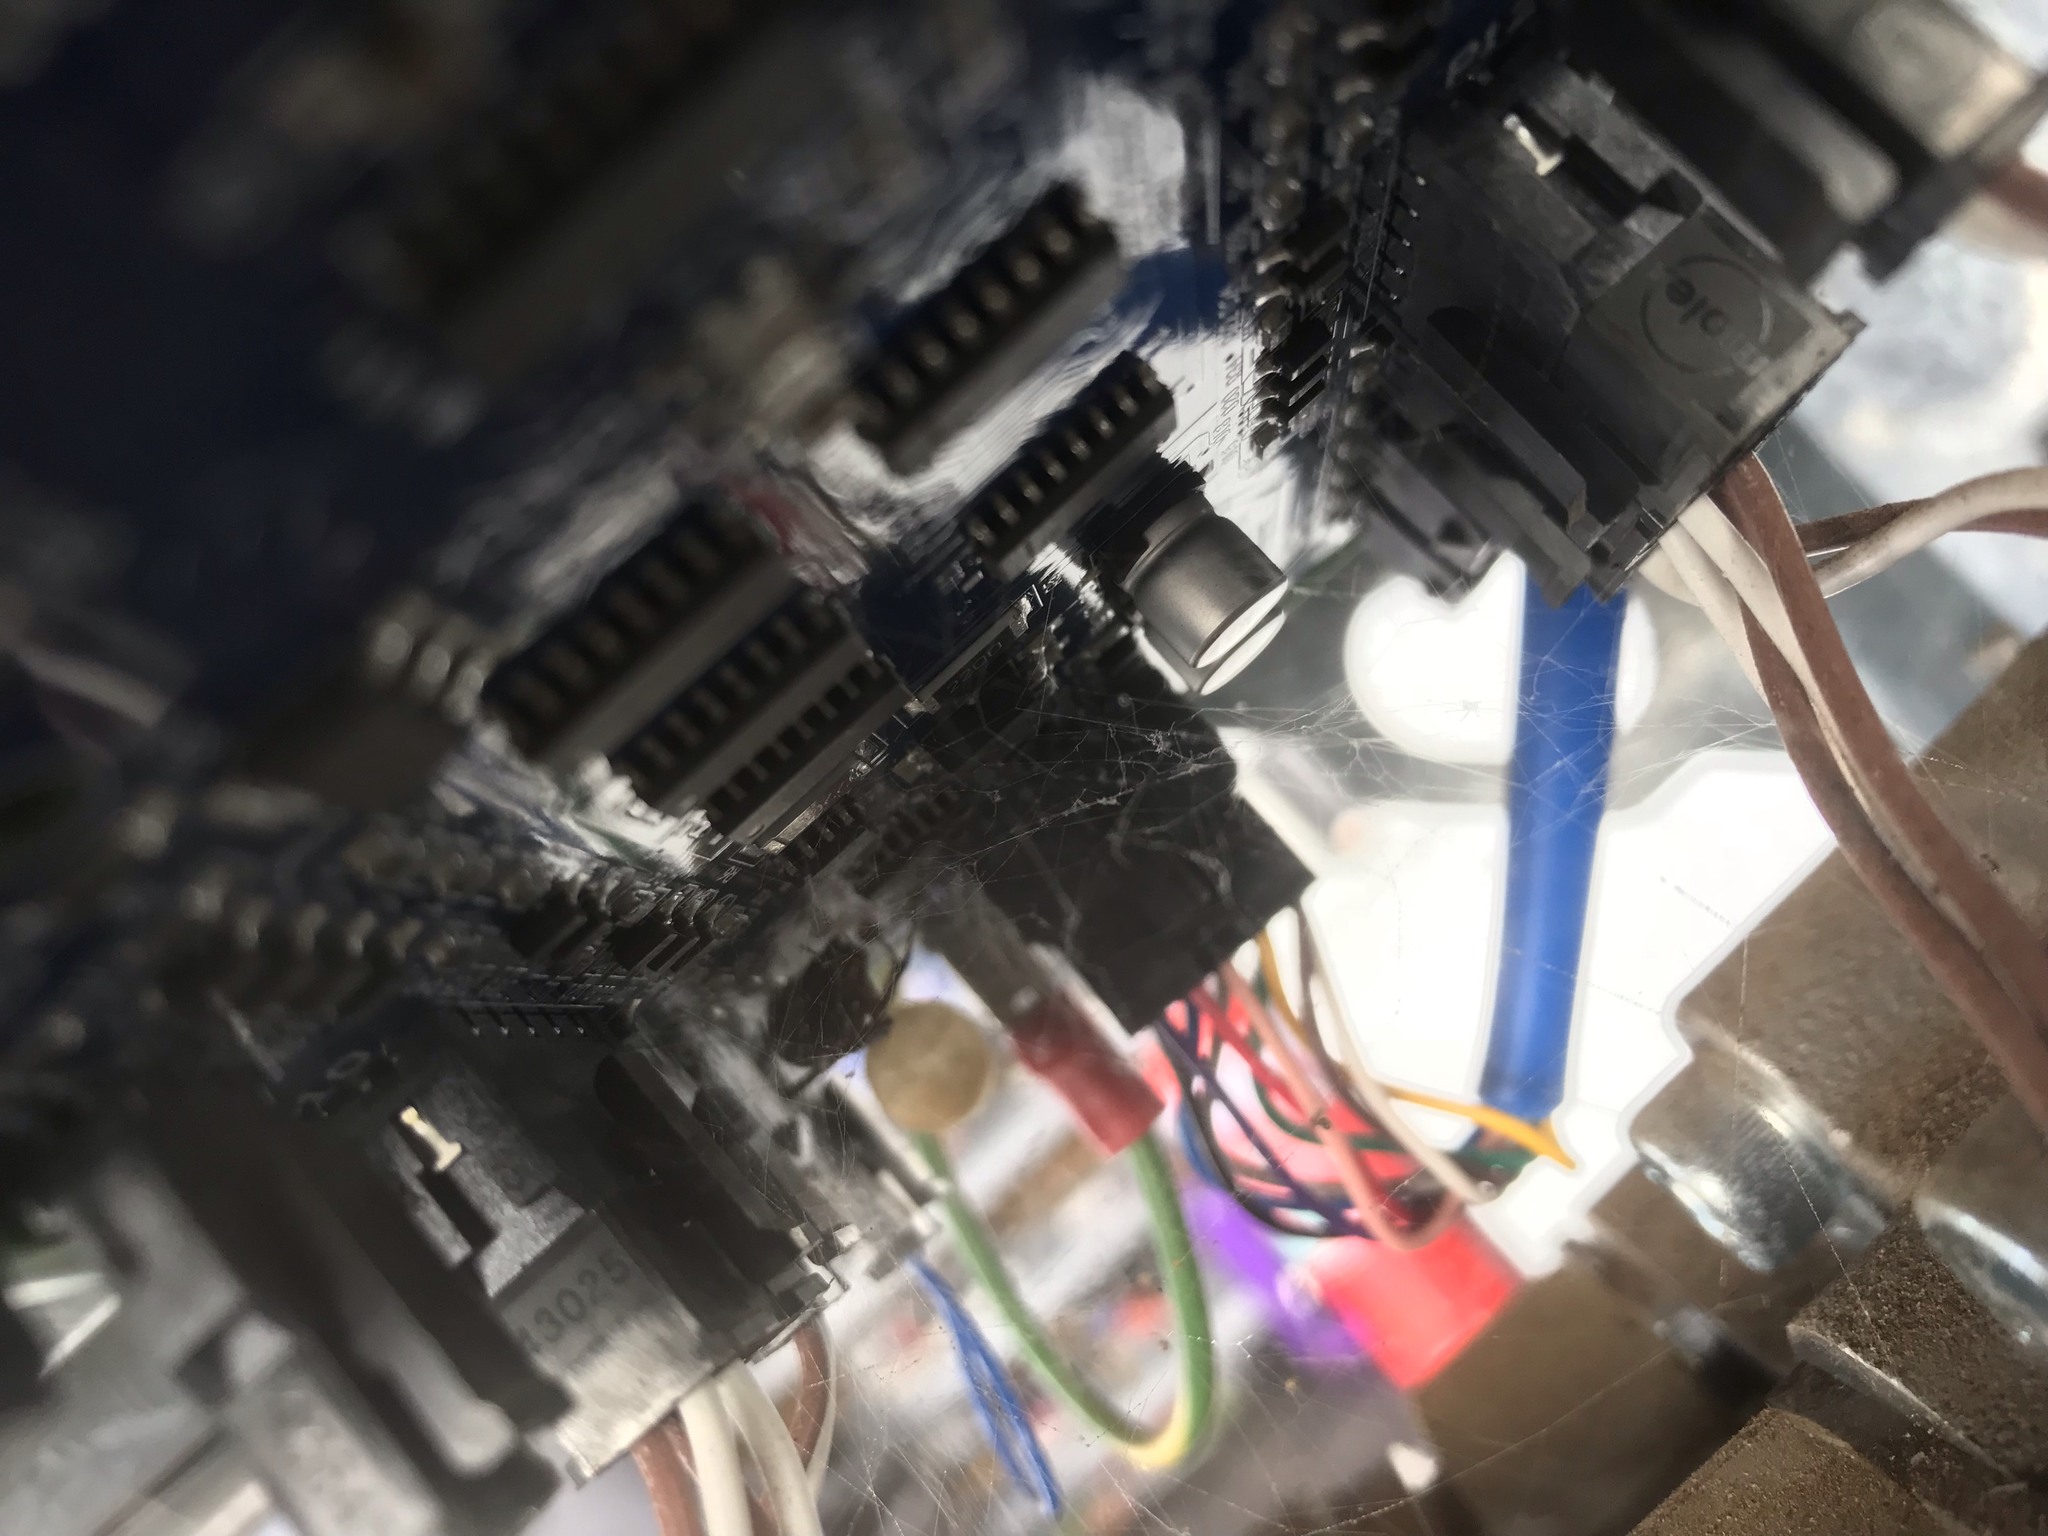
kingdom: Animalia
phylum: Arthropoda
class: Arachnida
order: Araneae
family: Theridiidae
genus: Latrodectus
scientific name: Latrodectus hasselti
